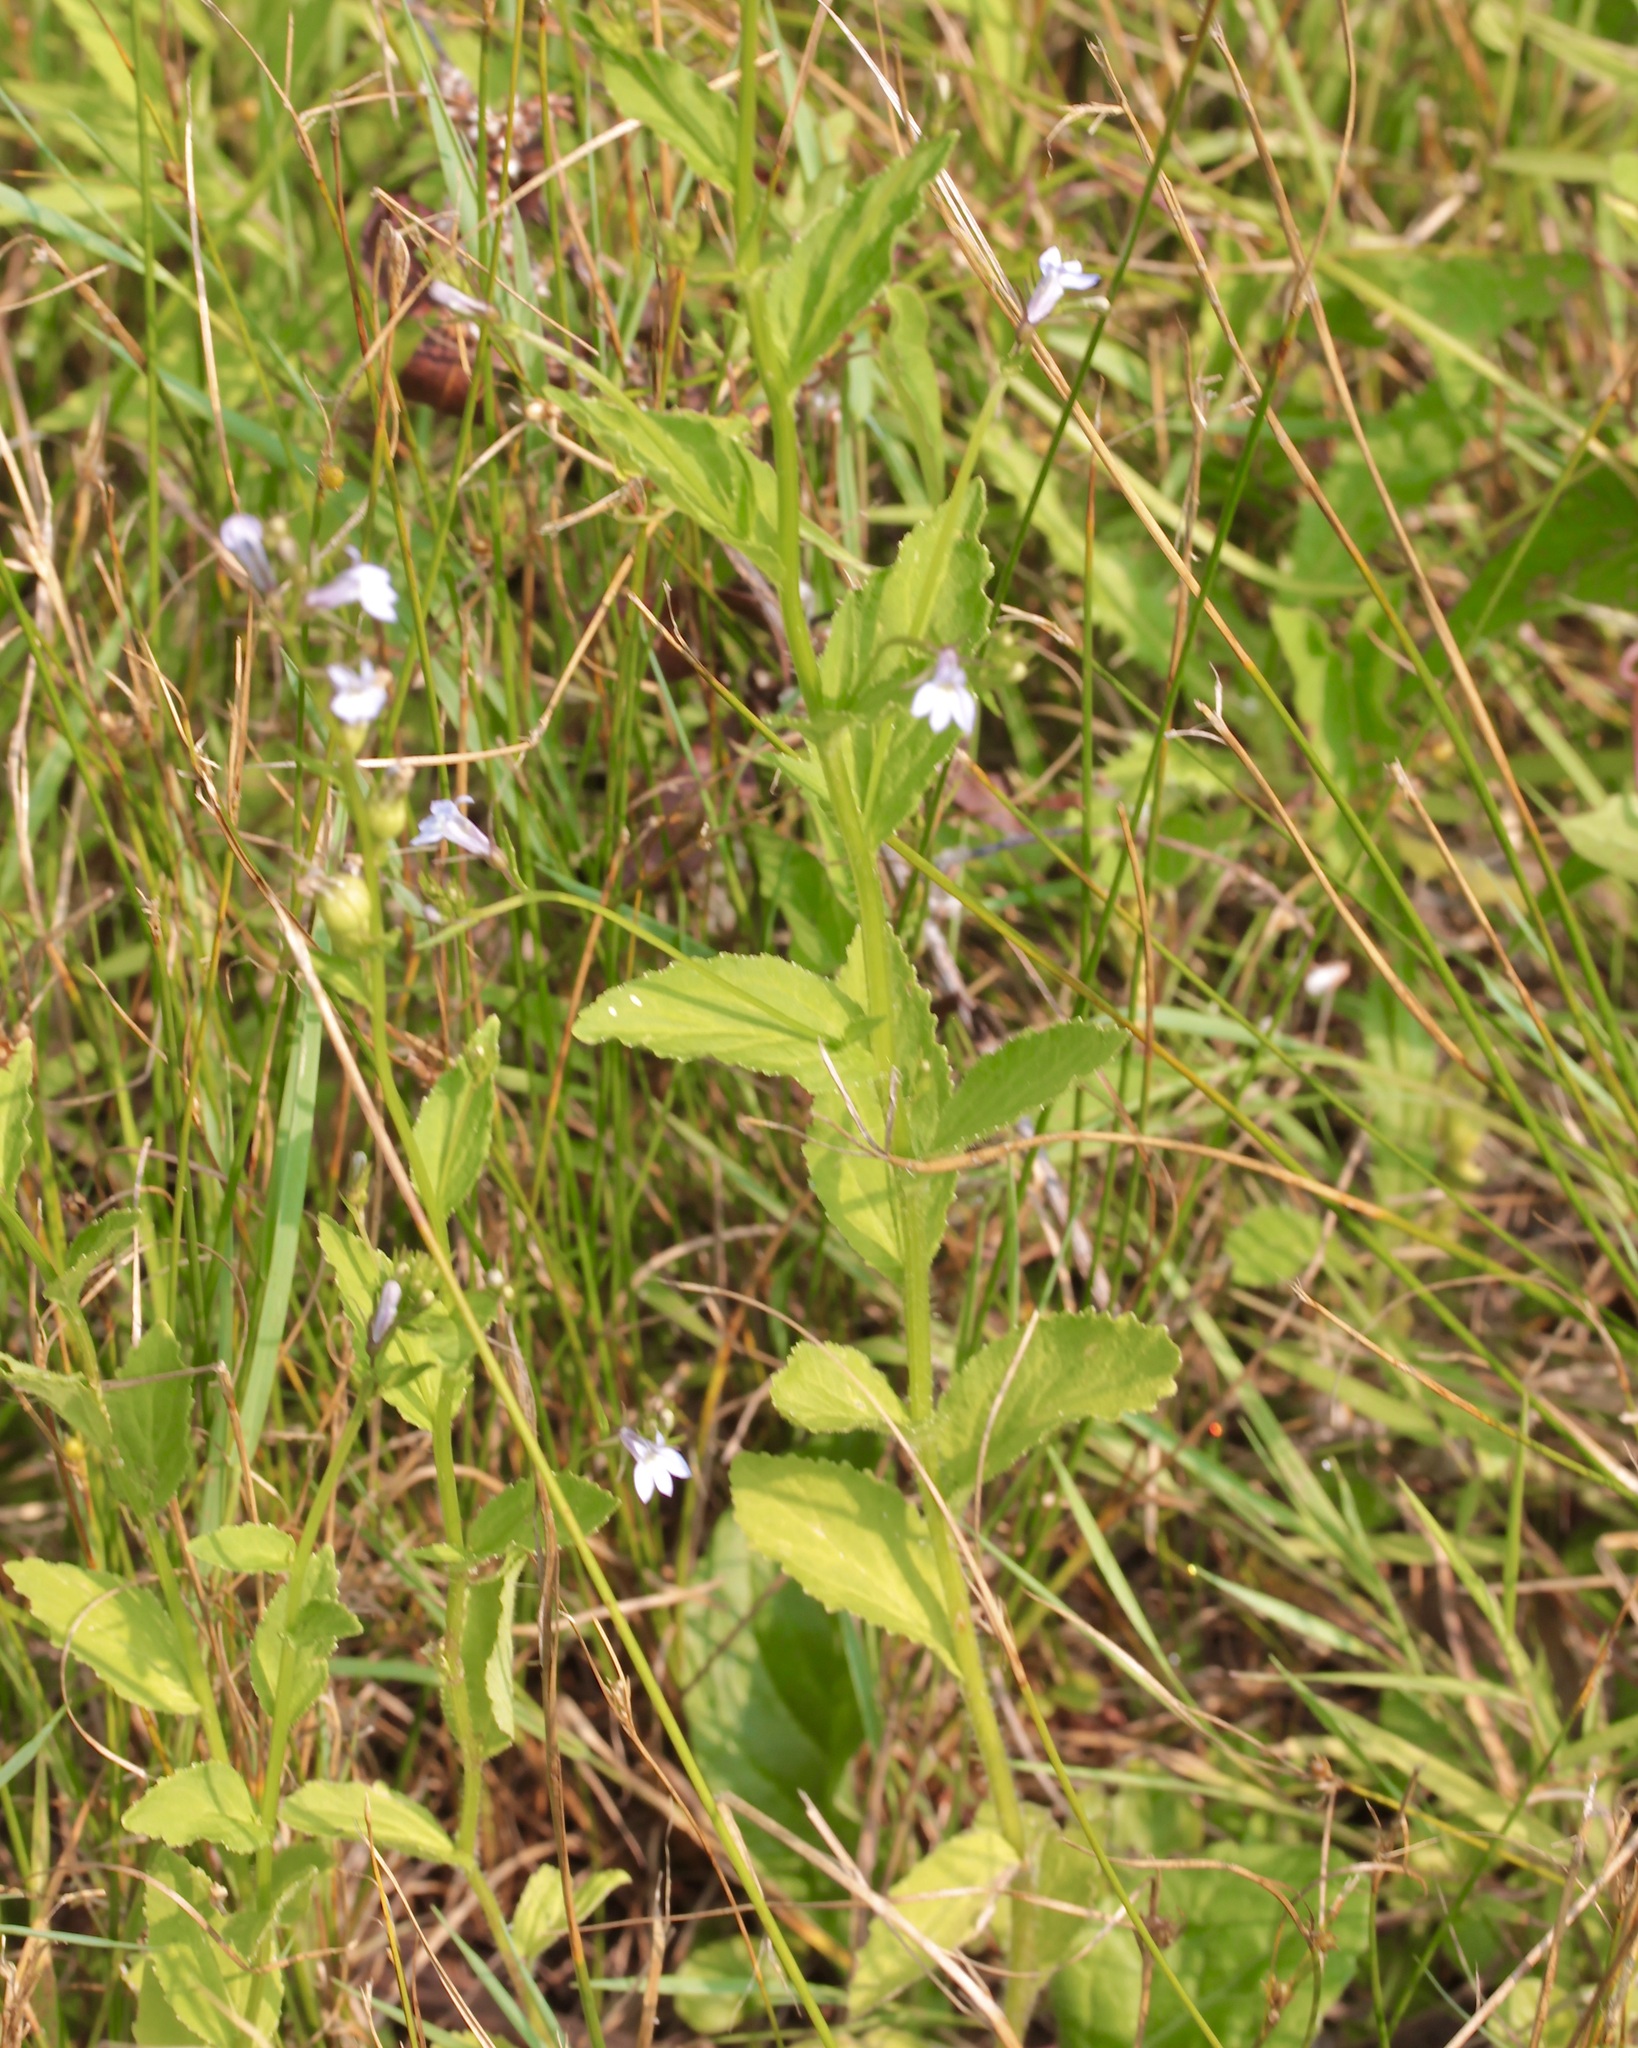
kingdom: Plantae
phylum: Tracheophyta
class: Magnoliopsida
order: Asterales
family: Campanulaceae
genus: Lobelia
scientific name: Lobelia inflata
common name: Indian tobacco
